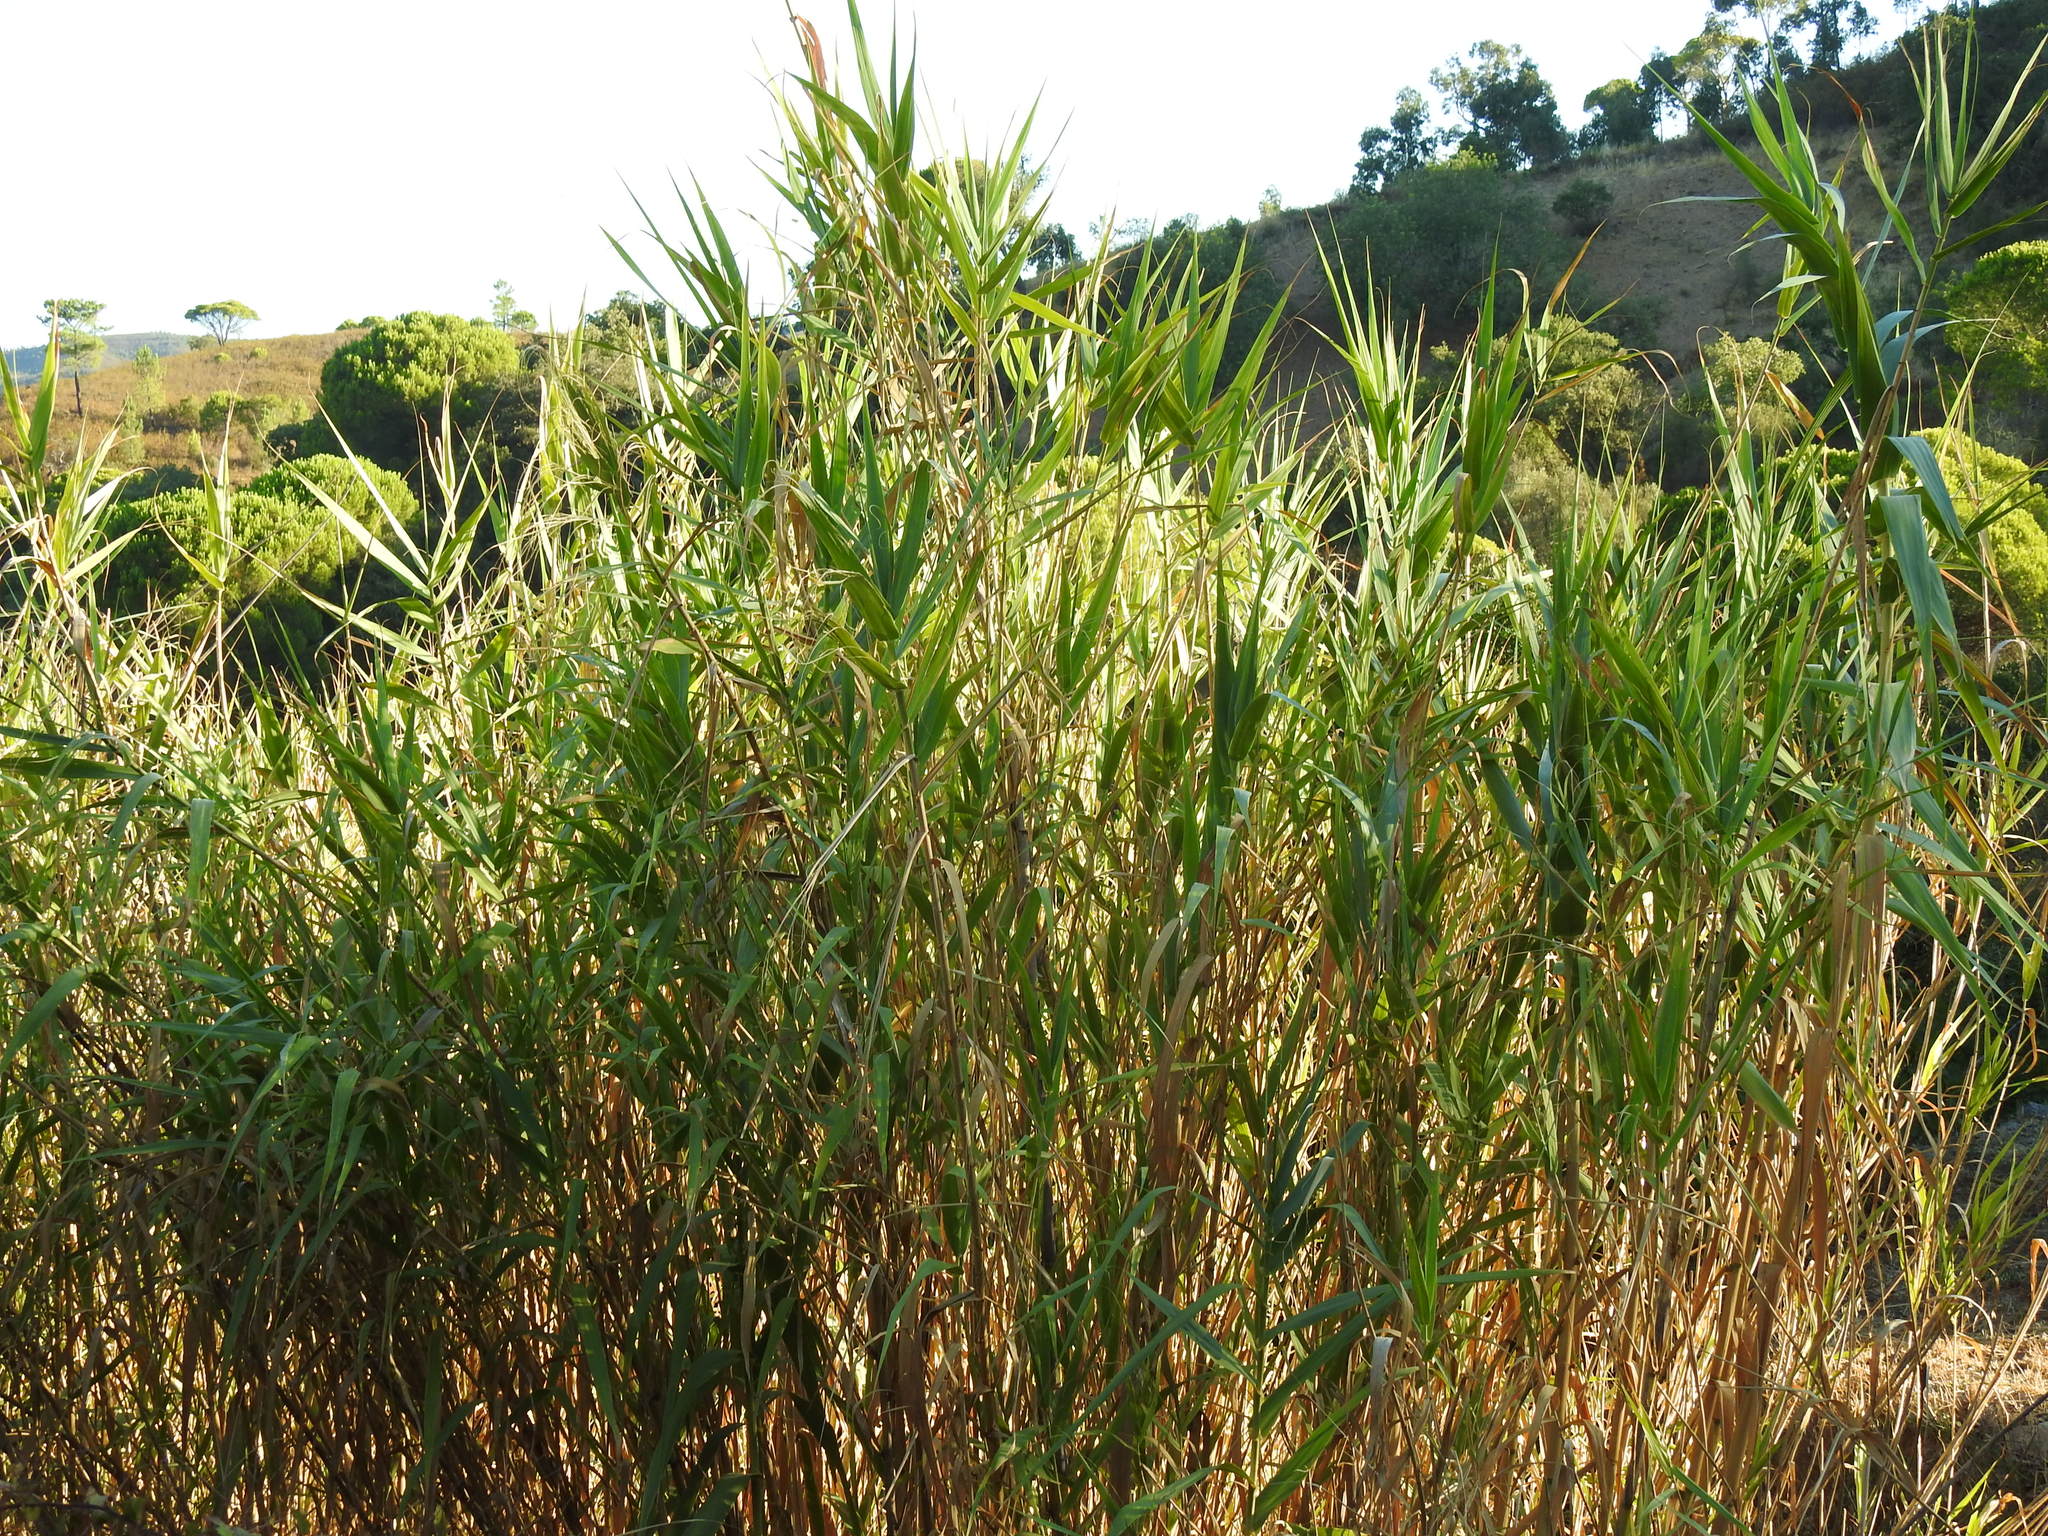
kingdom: Plantae
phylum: Tracheophyta
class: Liliopsida
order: Poales
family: Poaceae
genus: Arundo
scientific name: Arundo donax
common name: Giant reed
